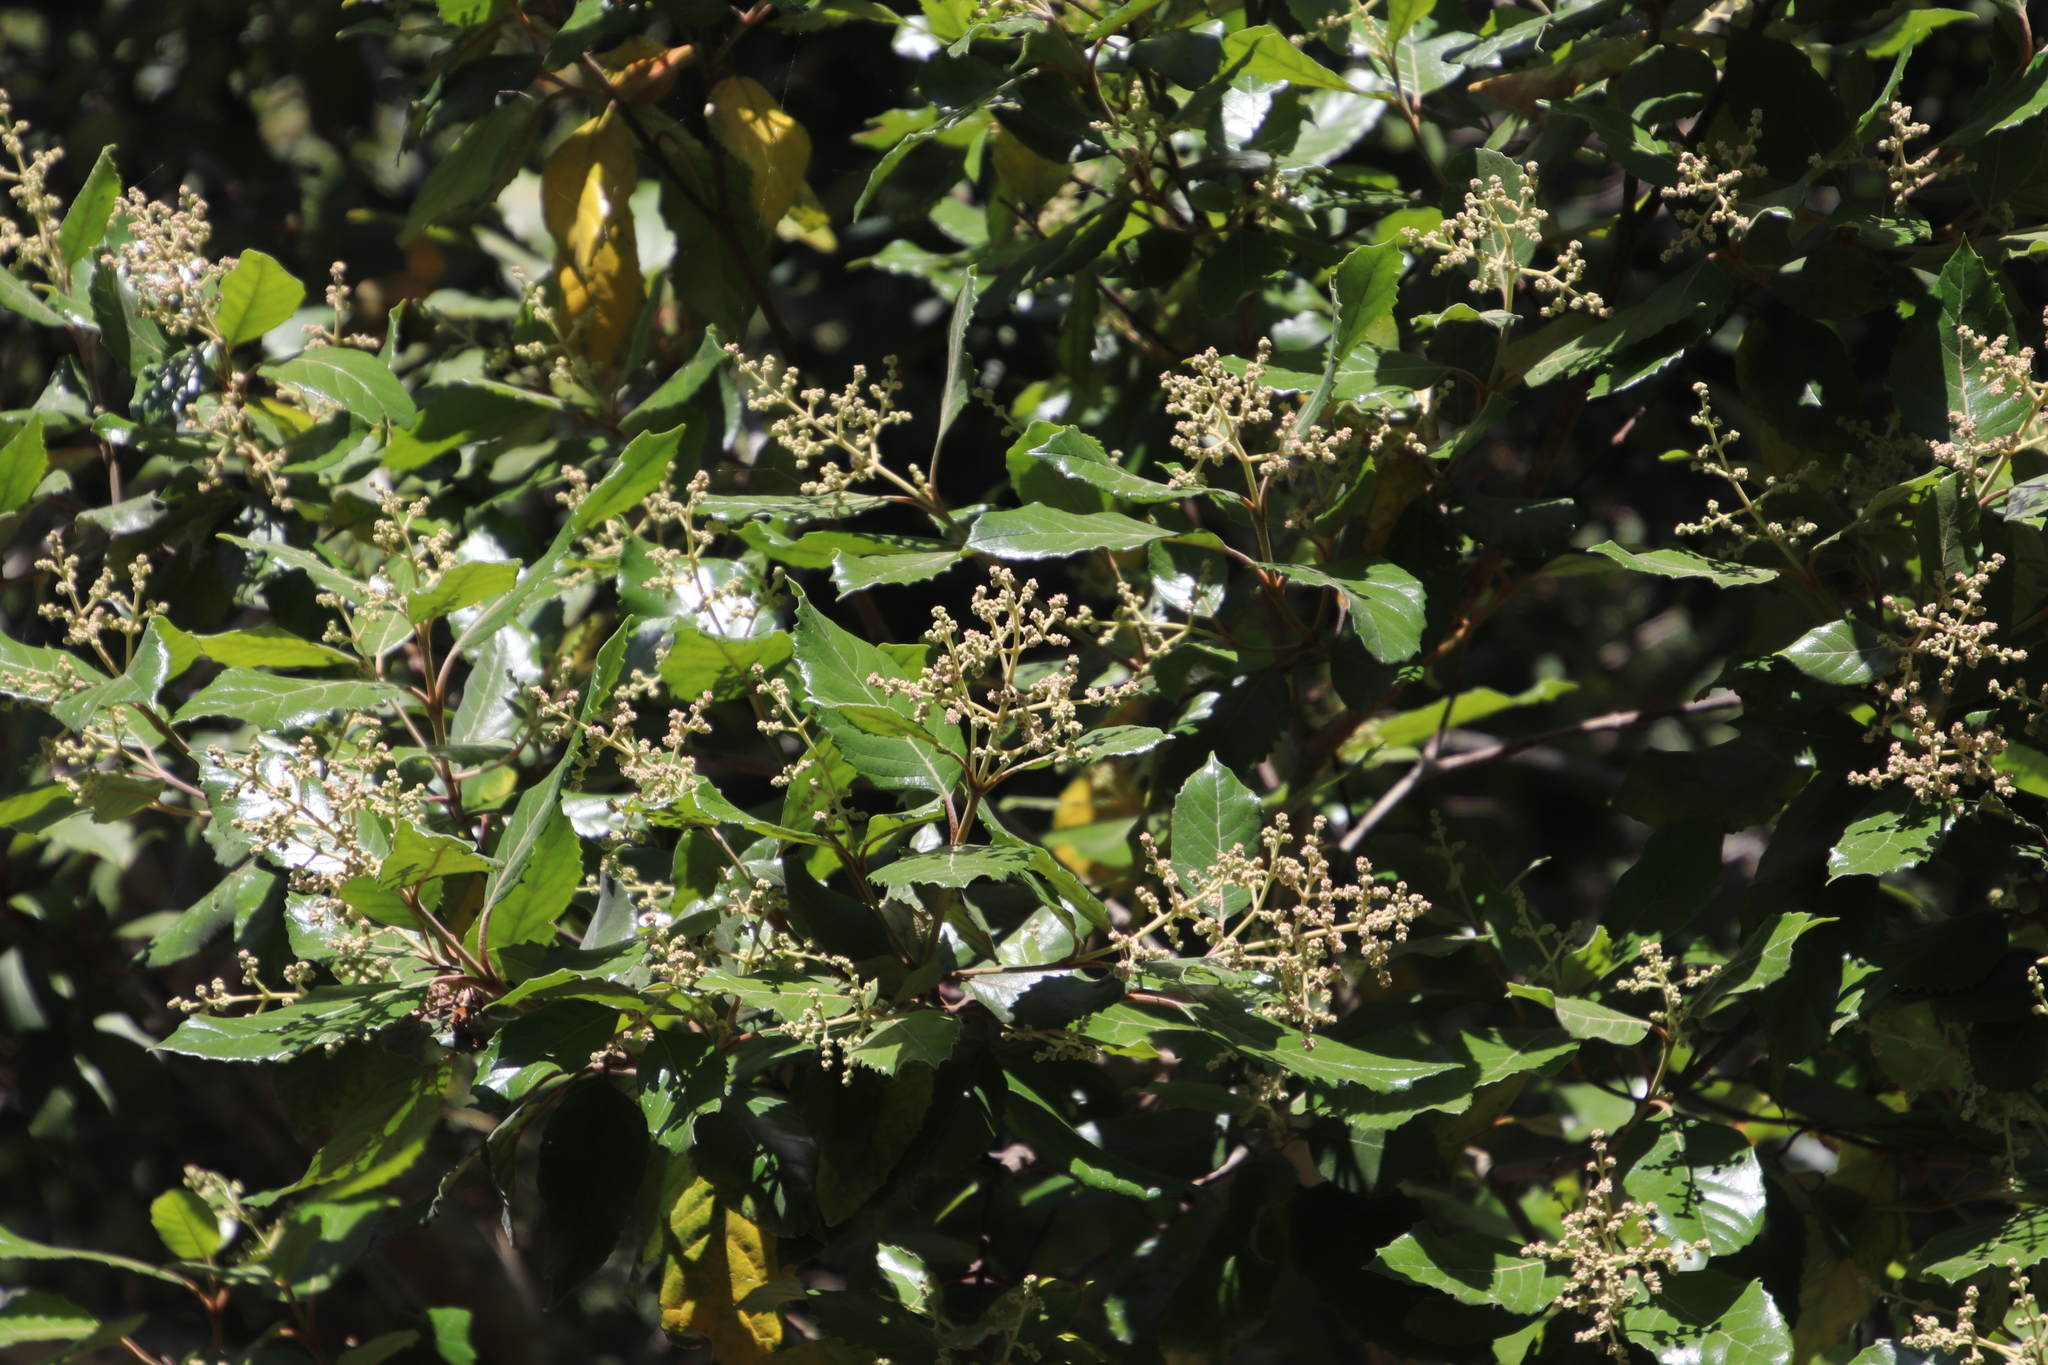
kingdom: Plantae
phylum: Tracheophyta
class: Magnoliopsida
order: Cornales
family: Curtisiaceae
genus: Curtisia
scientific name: Curtisia dentata
